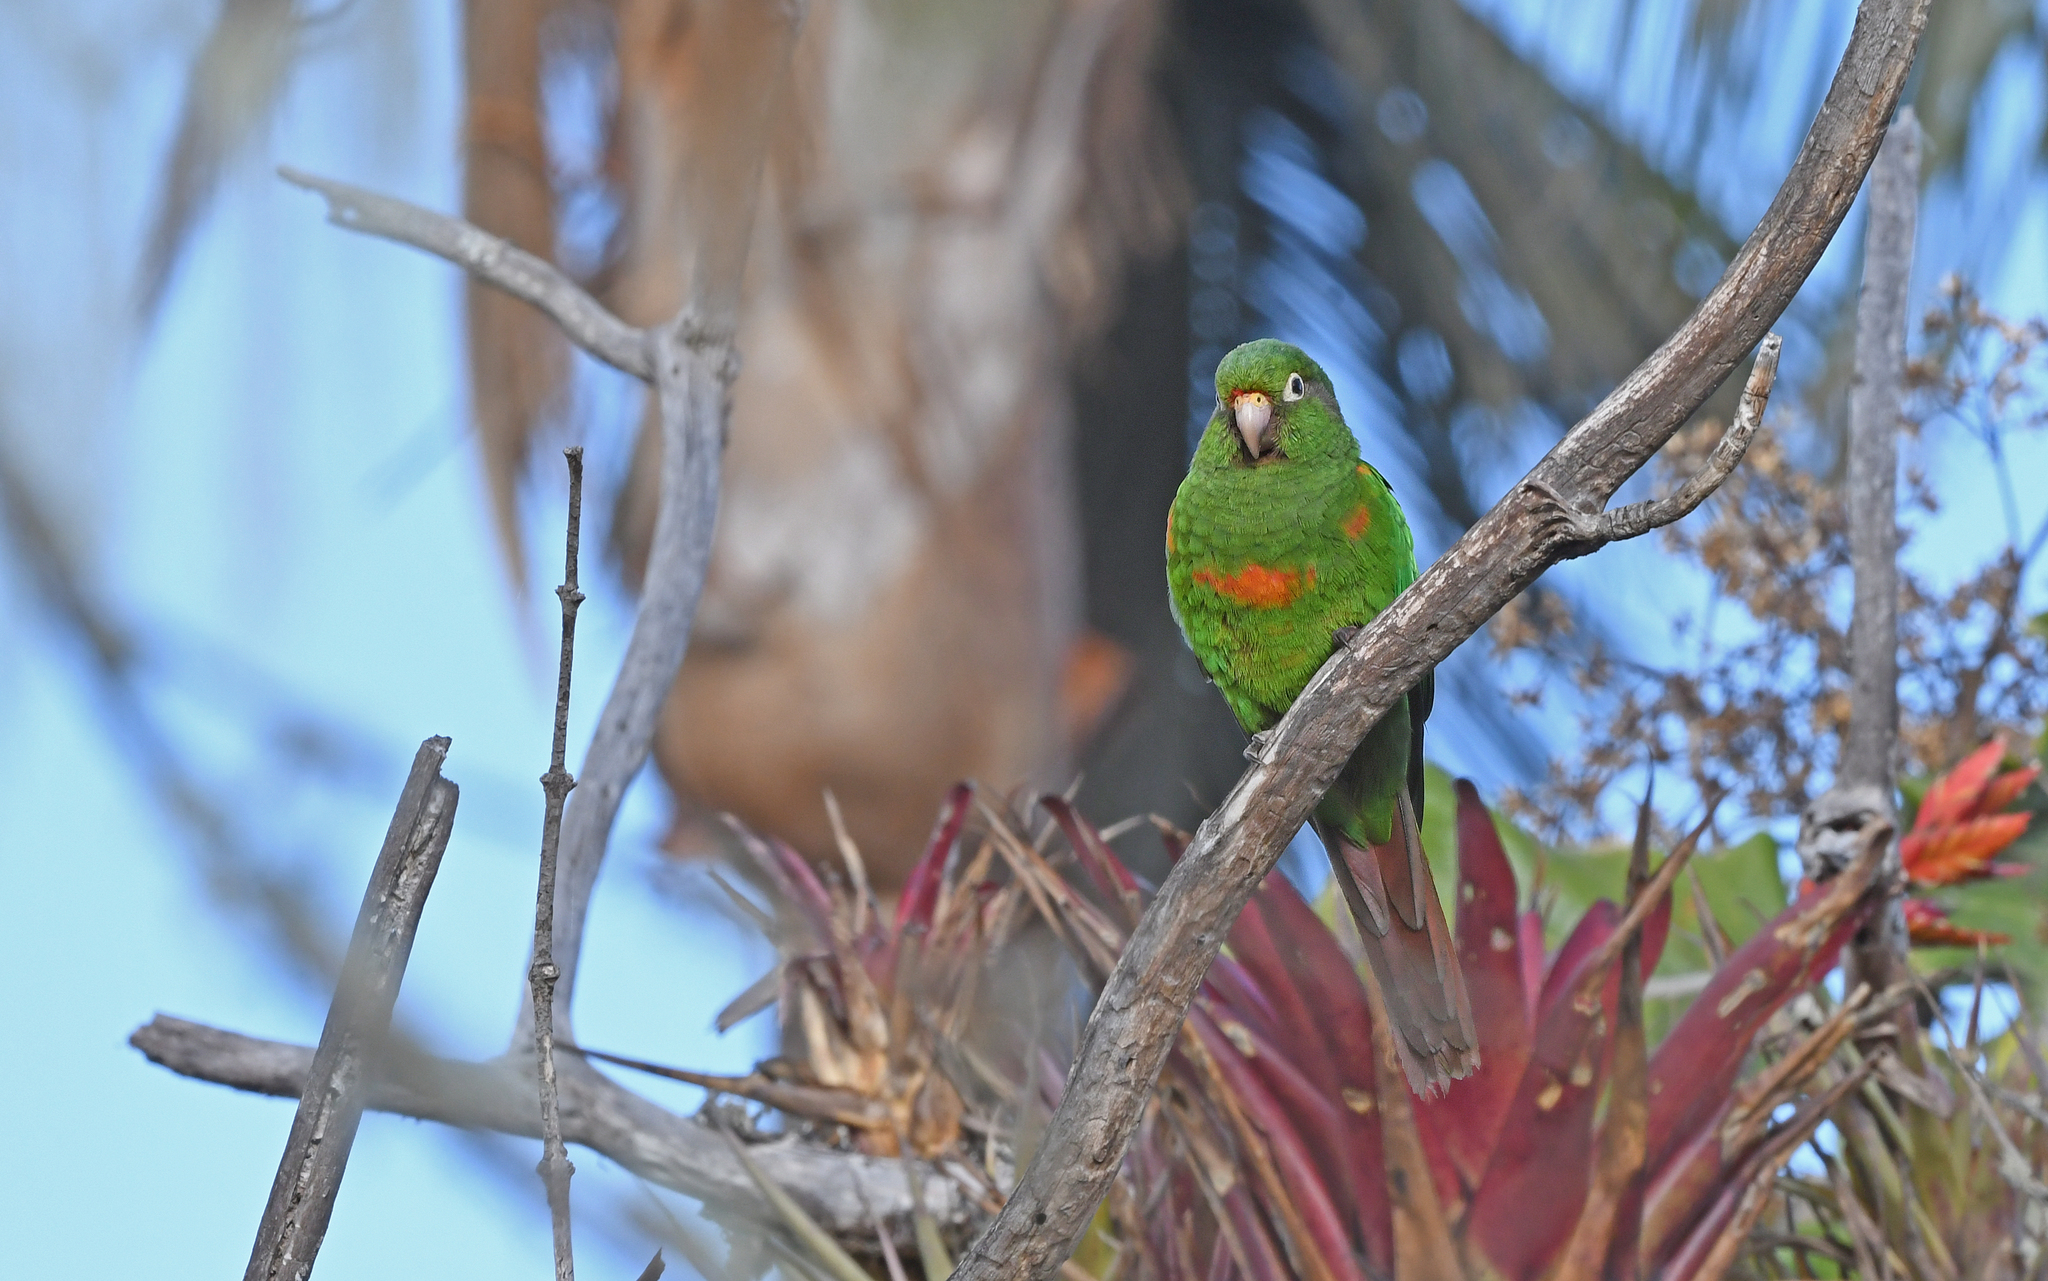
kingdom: Animalia
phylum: Chordata
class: Aves
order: Psittaciformes
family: Psittacidae
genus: Pyrrhura
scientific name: Pyrrhura viridicata
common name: Santa marta parakeet
